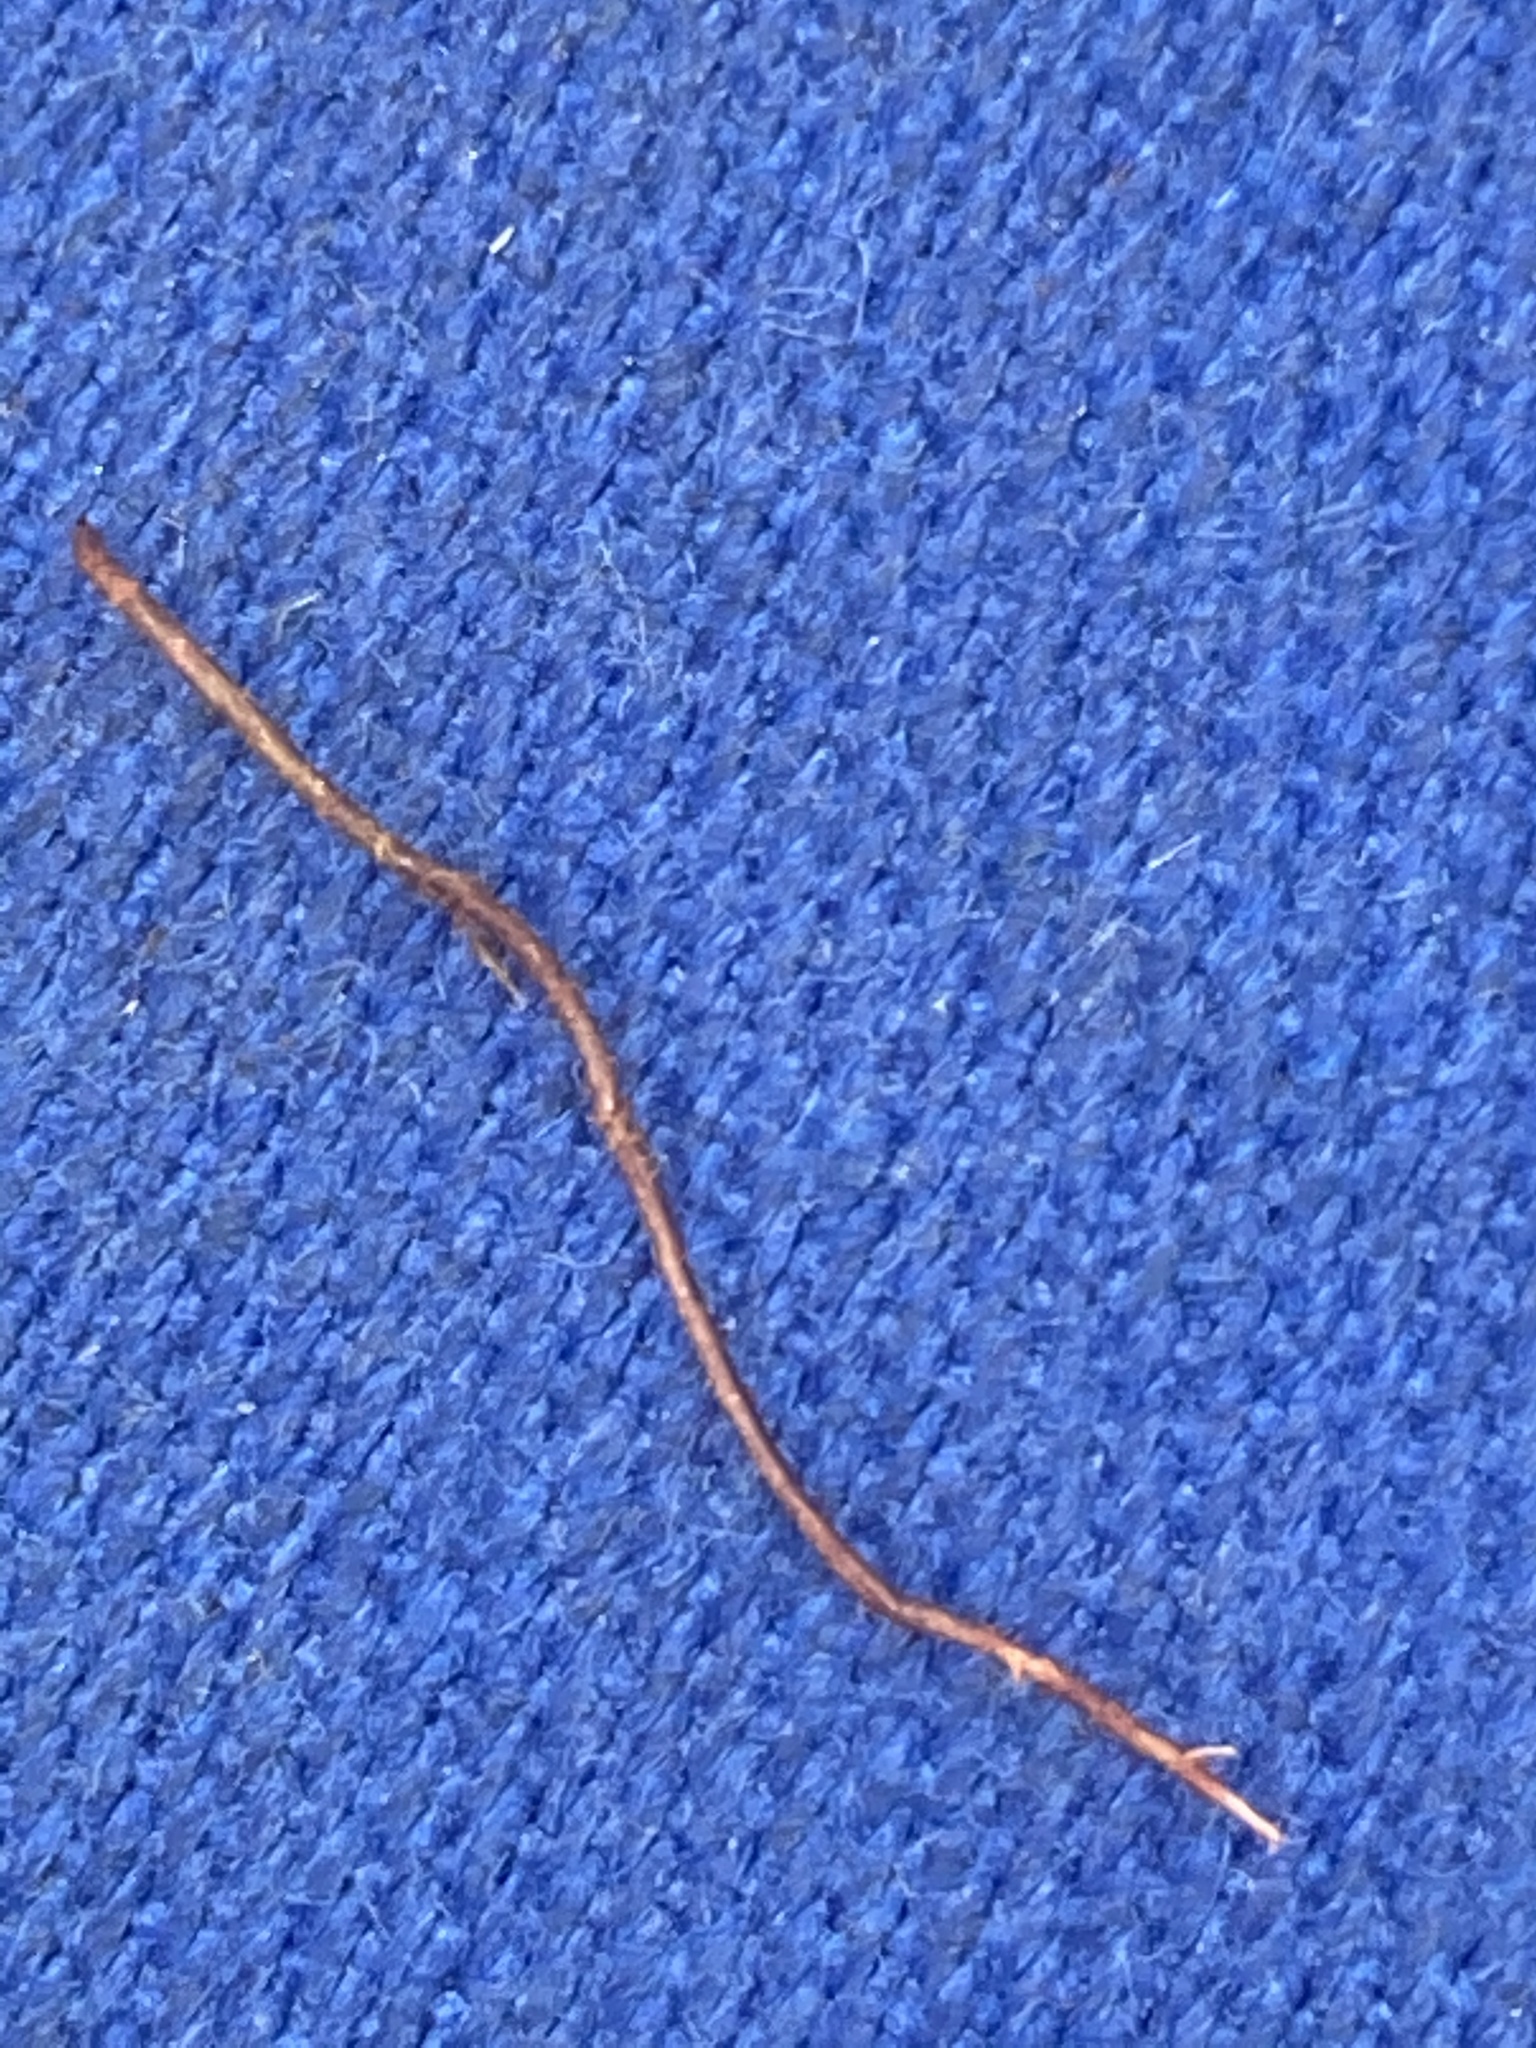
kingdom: Plantae
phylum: Tracheophyta
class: Magnoliopsida
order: Ericales
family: Ericaceae
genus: Vaccinium
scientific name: Vaccinium oxycoccos
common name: Cranberry
